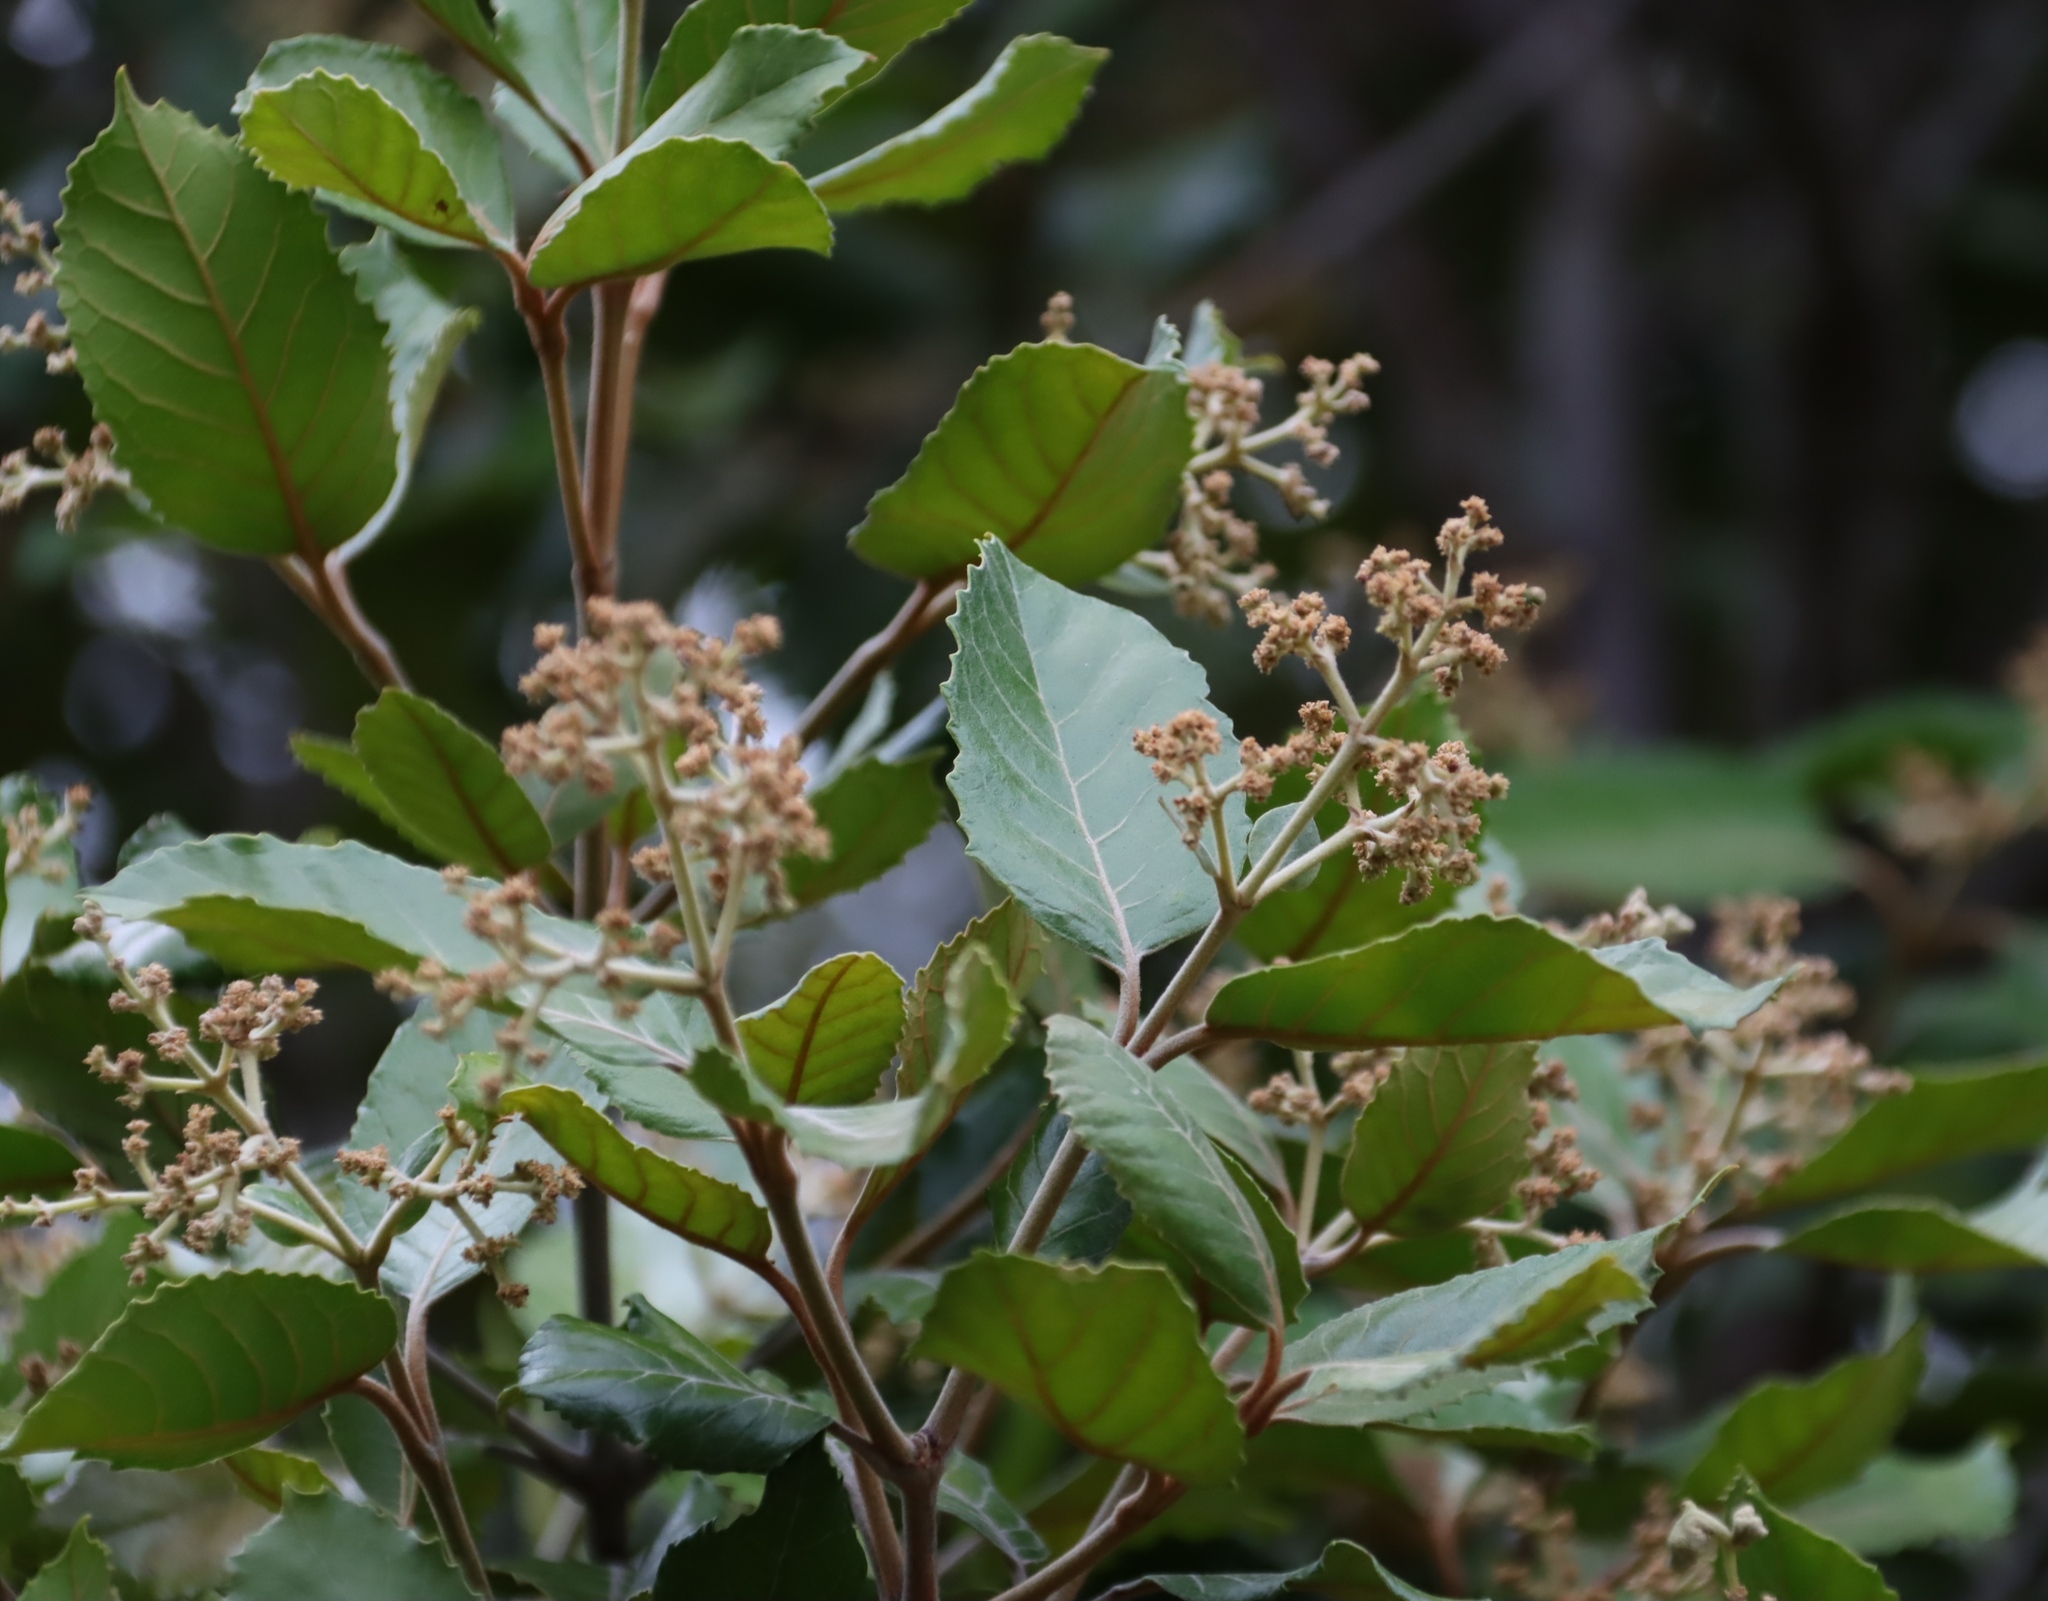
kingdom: Plantae
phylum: Tracheophyta
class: Magnoliopsida
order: Cornales
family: Curtisiaceae
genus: Curtisia
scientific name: Curtisia dentata
